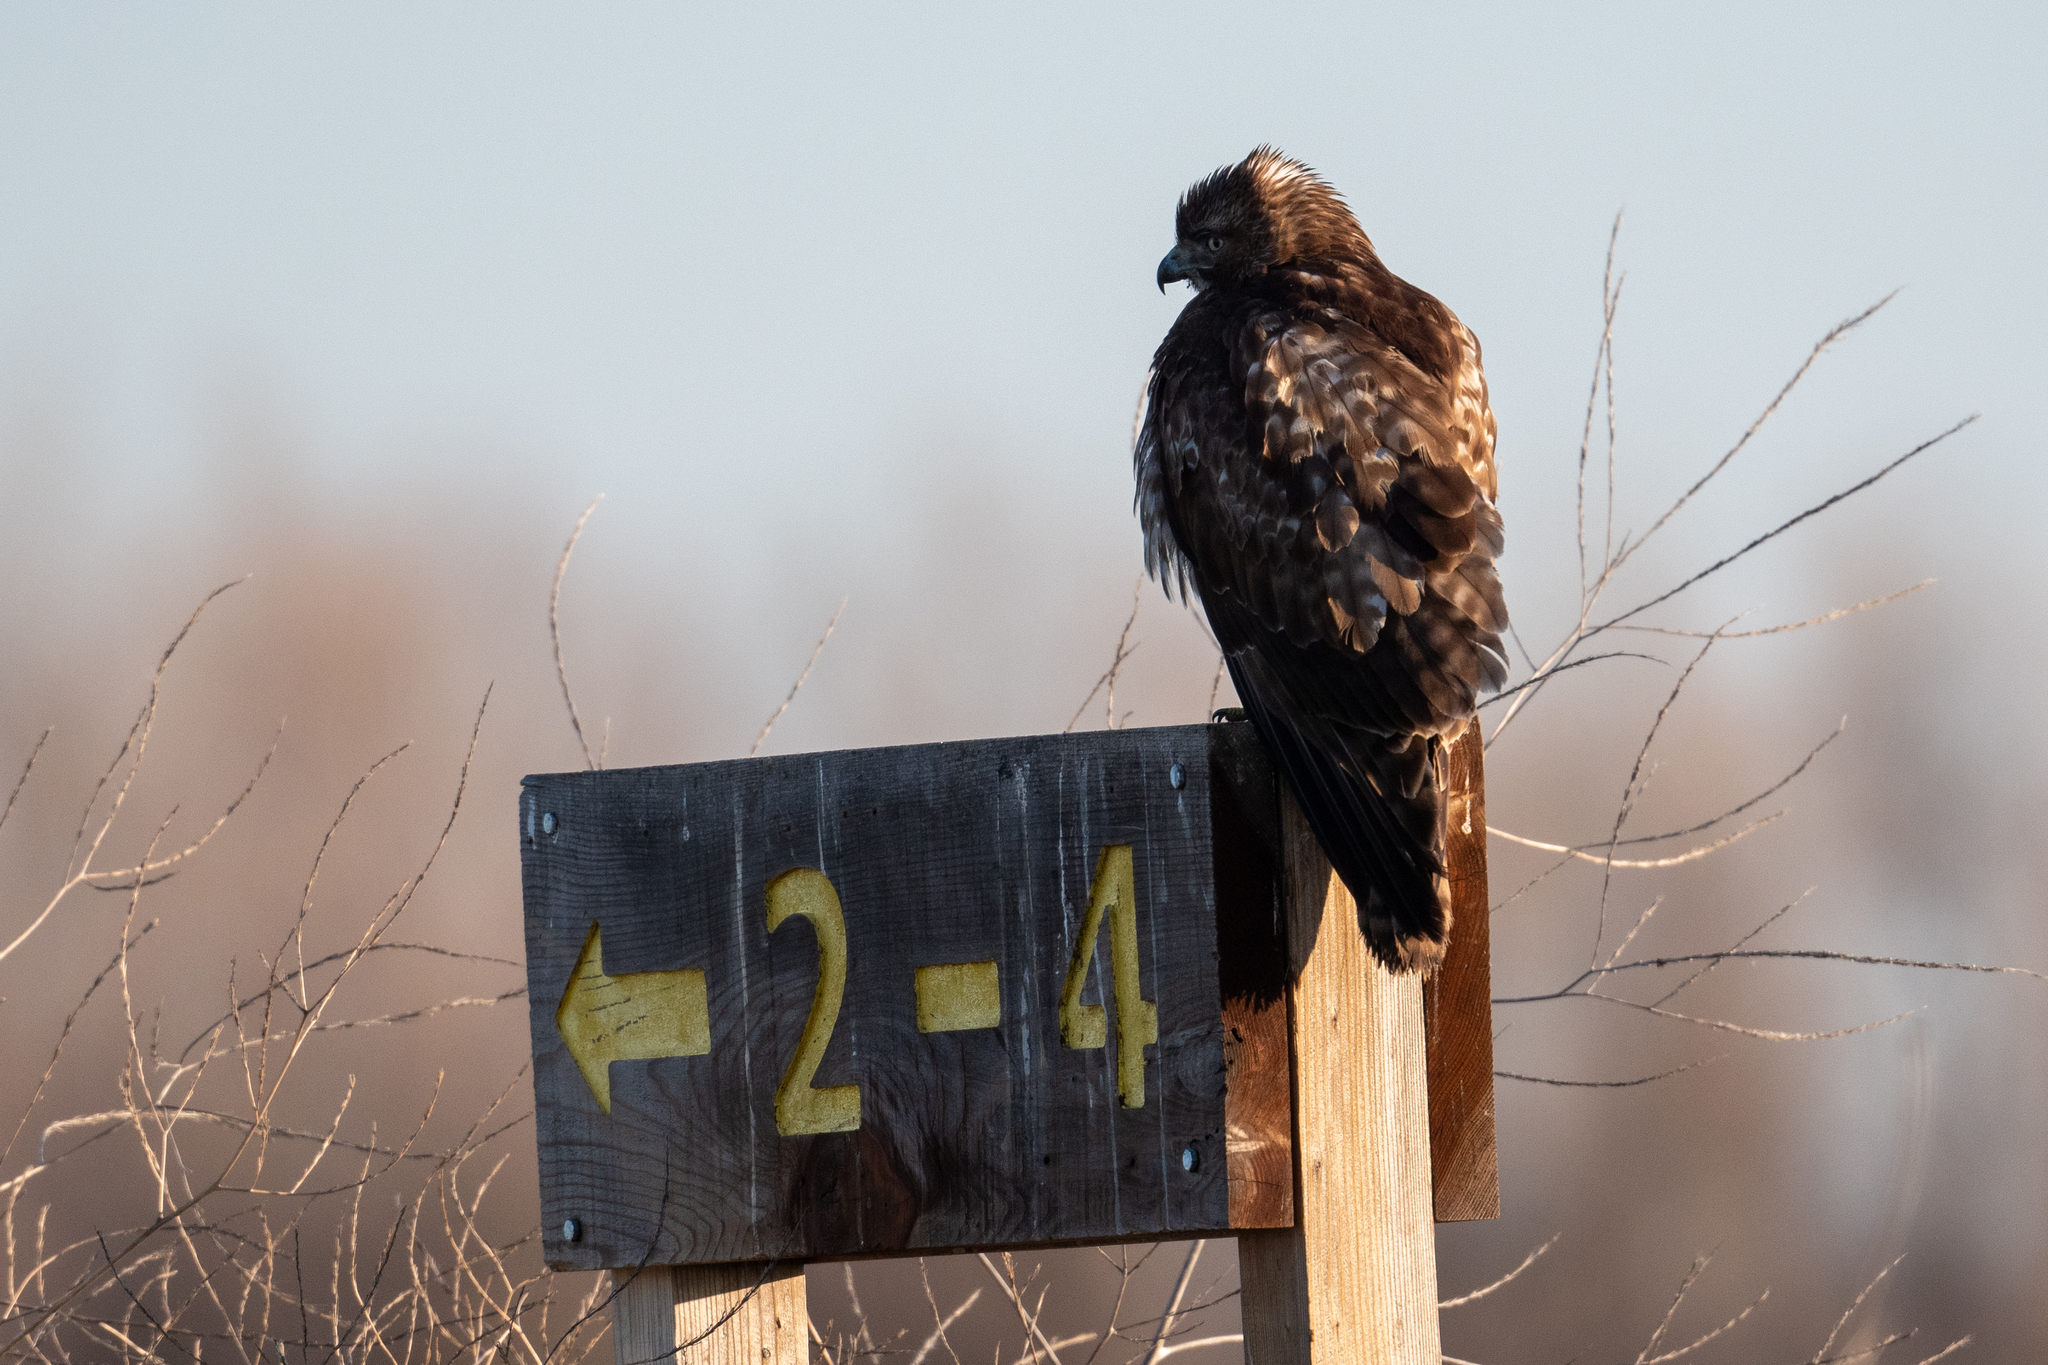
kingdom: Animalia
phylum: Chordata
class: Aves
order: Accipitriformes
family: Accipitridae
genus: Buteo
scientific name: Buteo jamaicensis
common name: Red-tailed hawk
